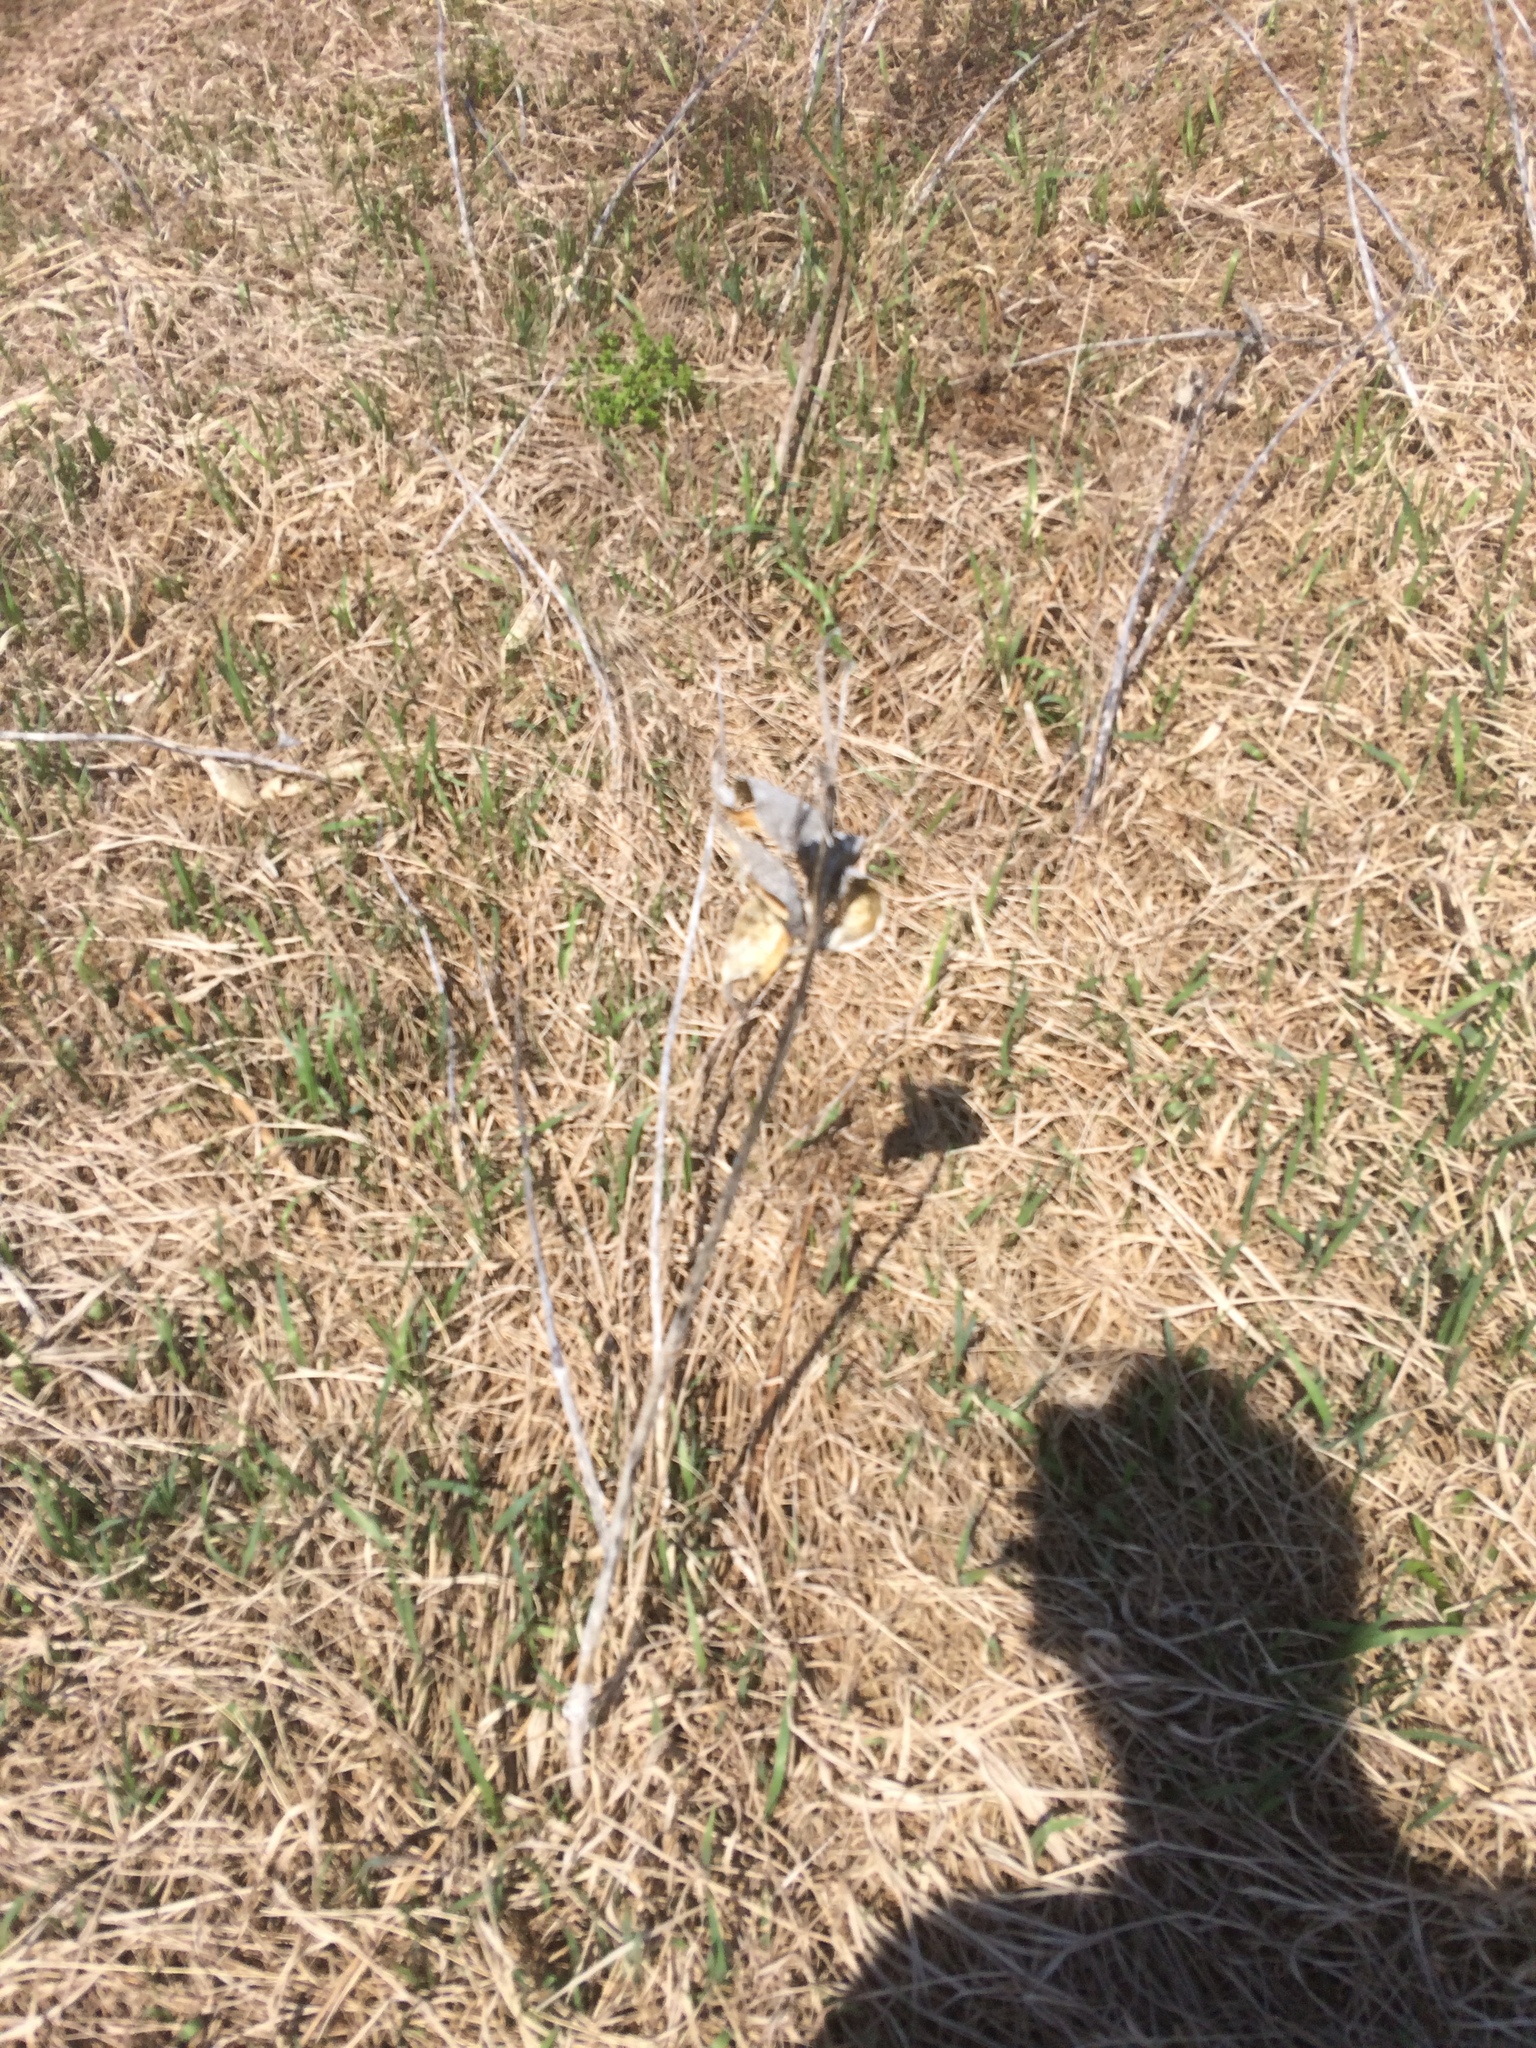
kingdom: Plantae
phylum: Tracheophyta
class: Magnoliopsida
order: Gentianales
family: Apocynaceae
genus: Asclepias
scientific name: Asclepias syriaca
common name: Common milkweed
